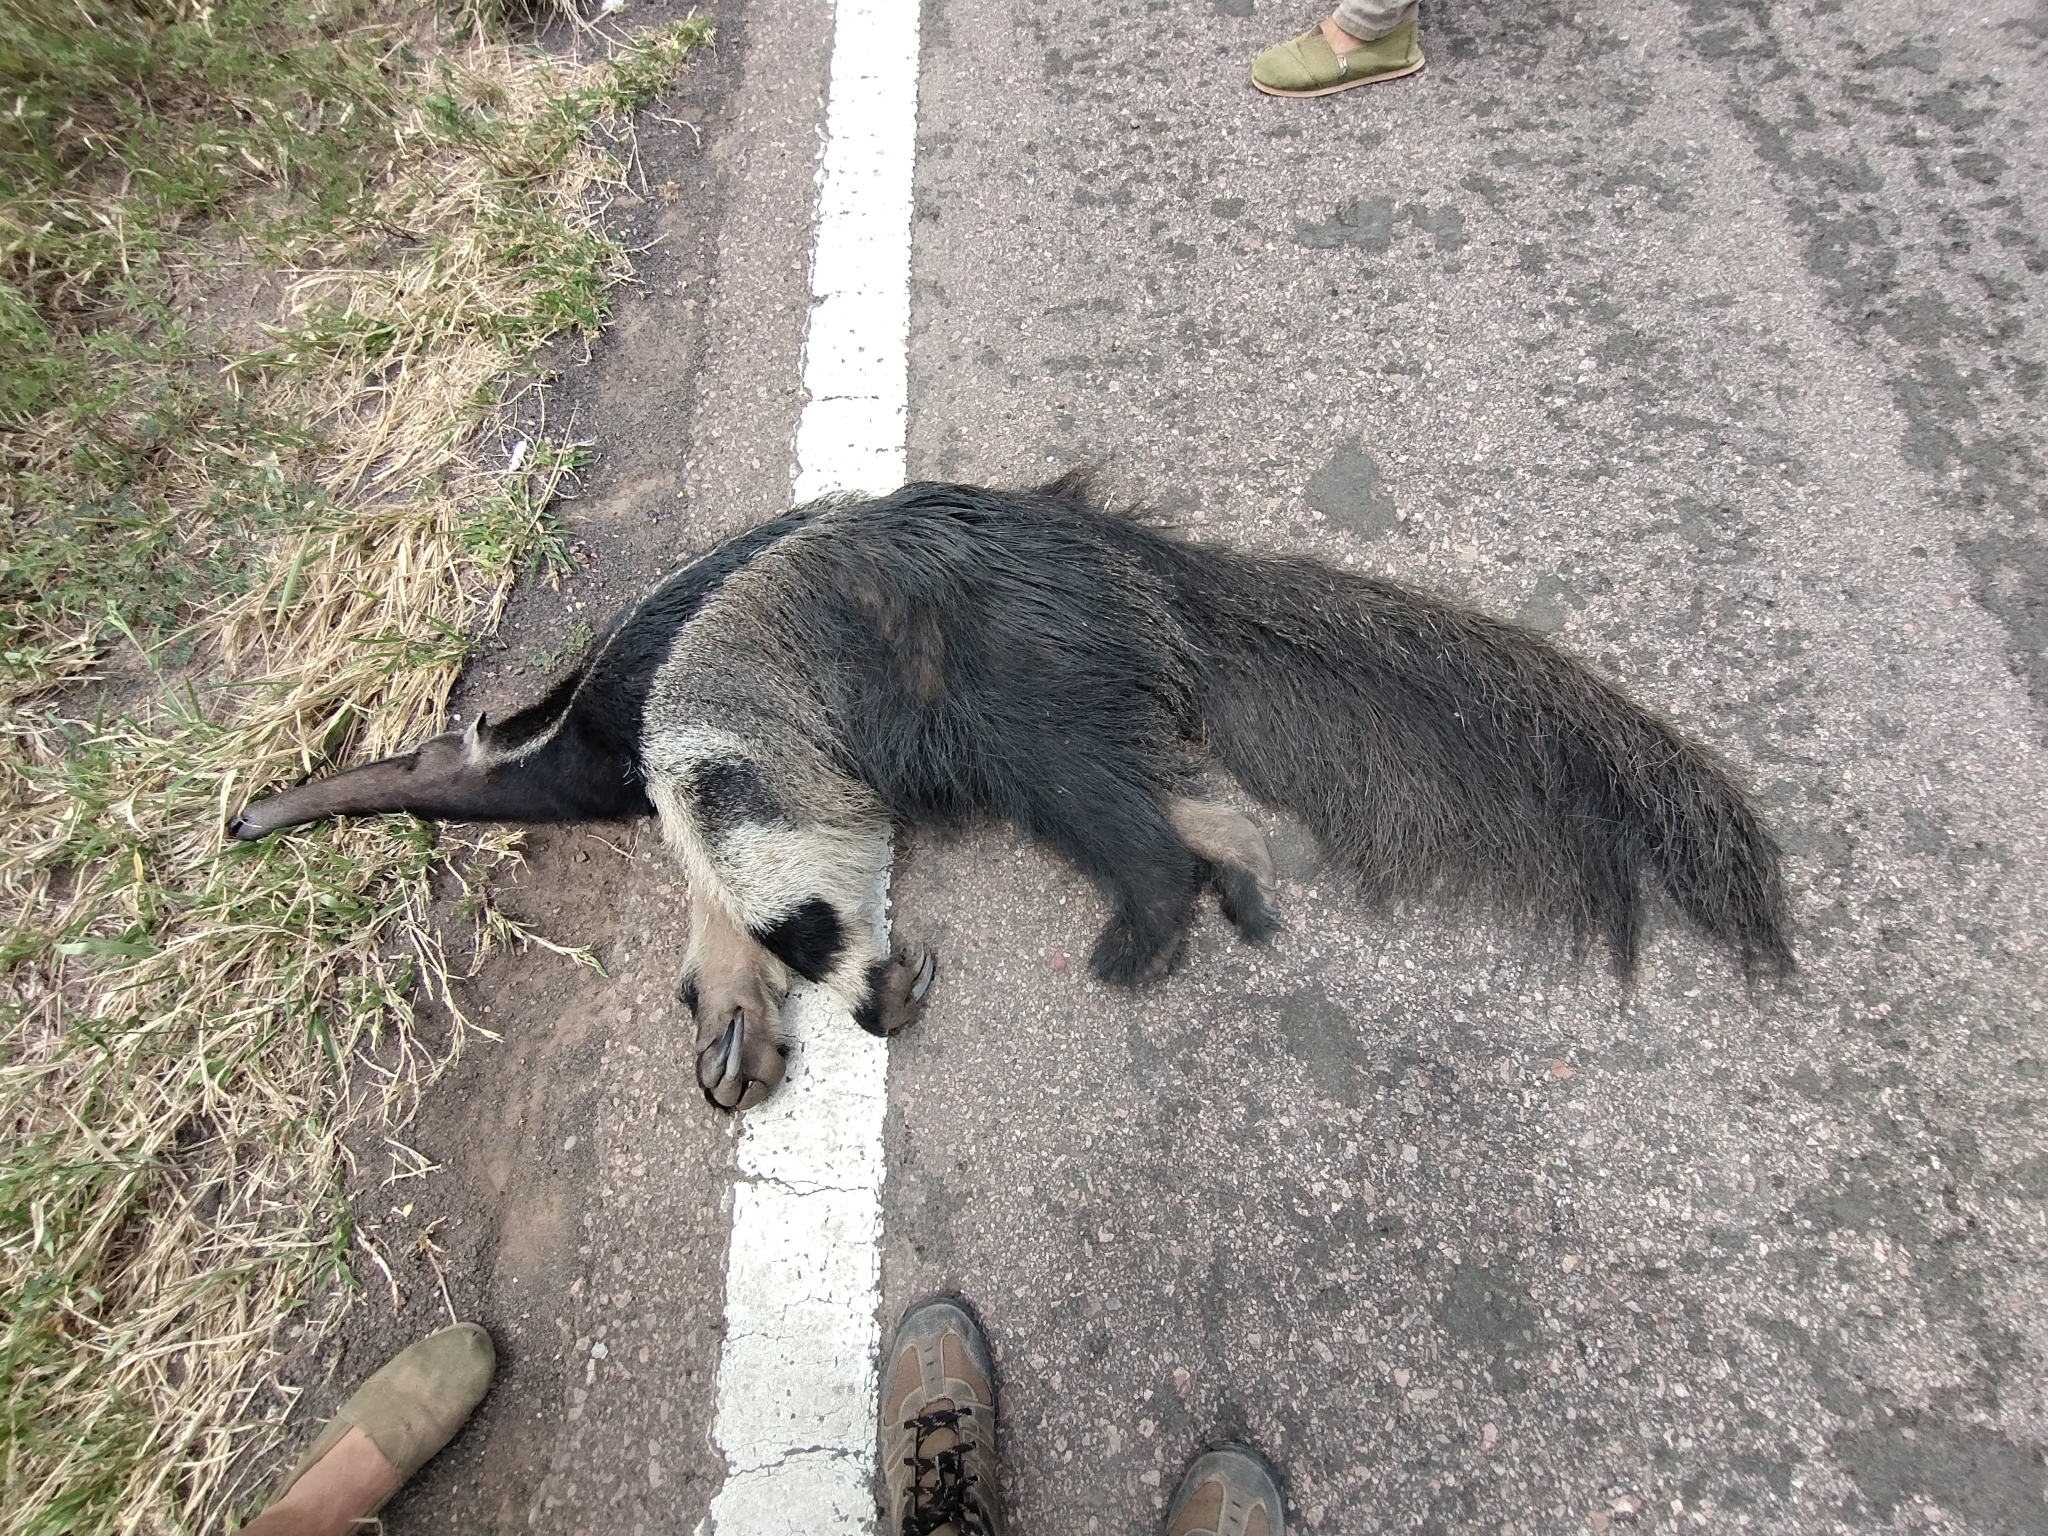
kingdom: Animalia
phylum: Chordata
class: Mammalia
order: Pilosa
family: Myrmecophagidae
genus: Myrmecophaga
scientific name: Myrmecophaga tridactyla
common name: Giant anteater
